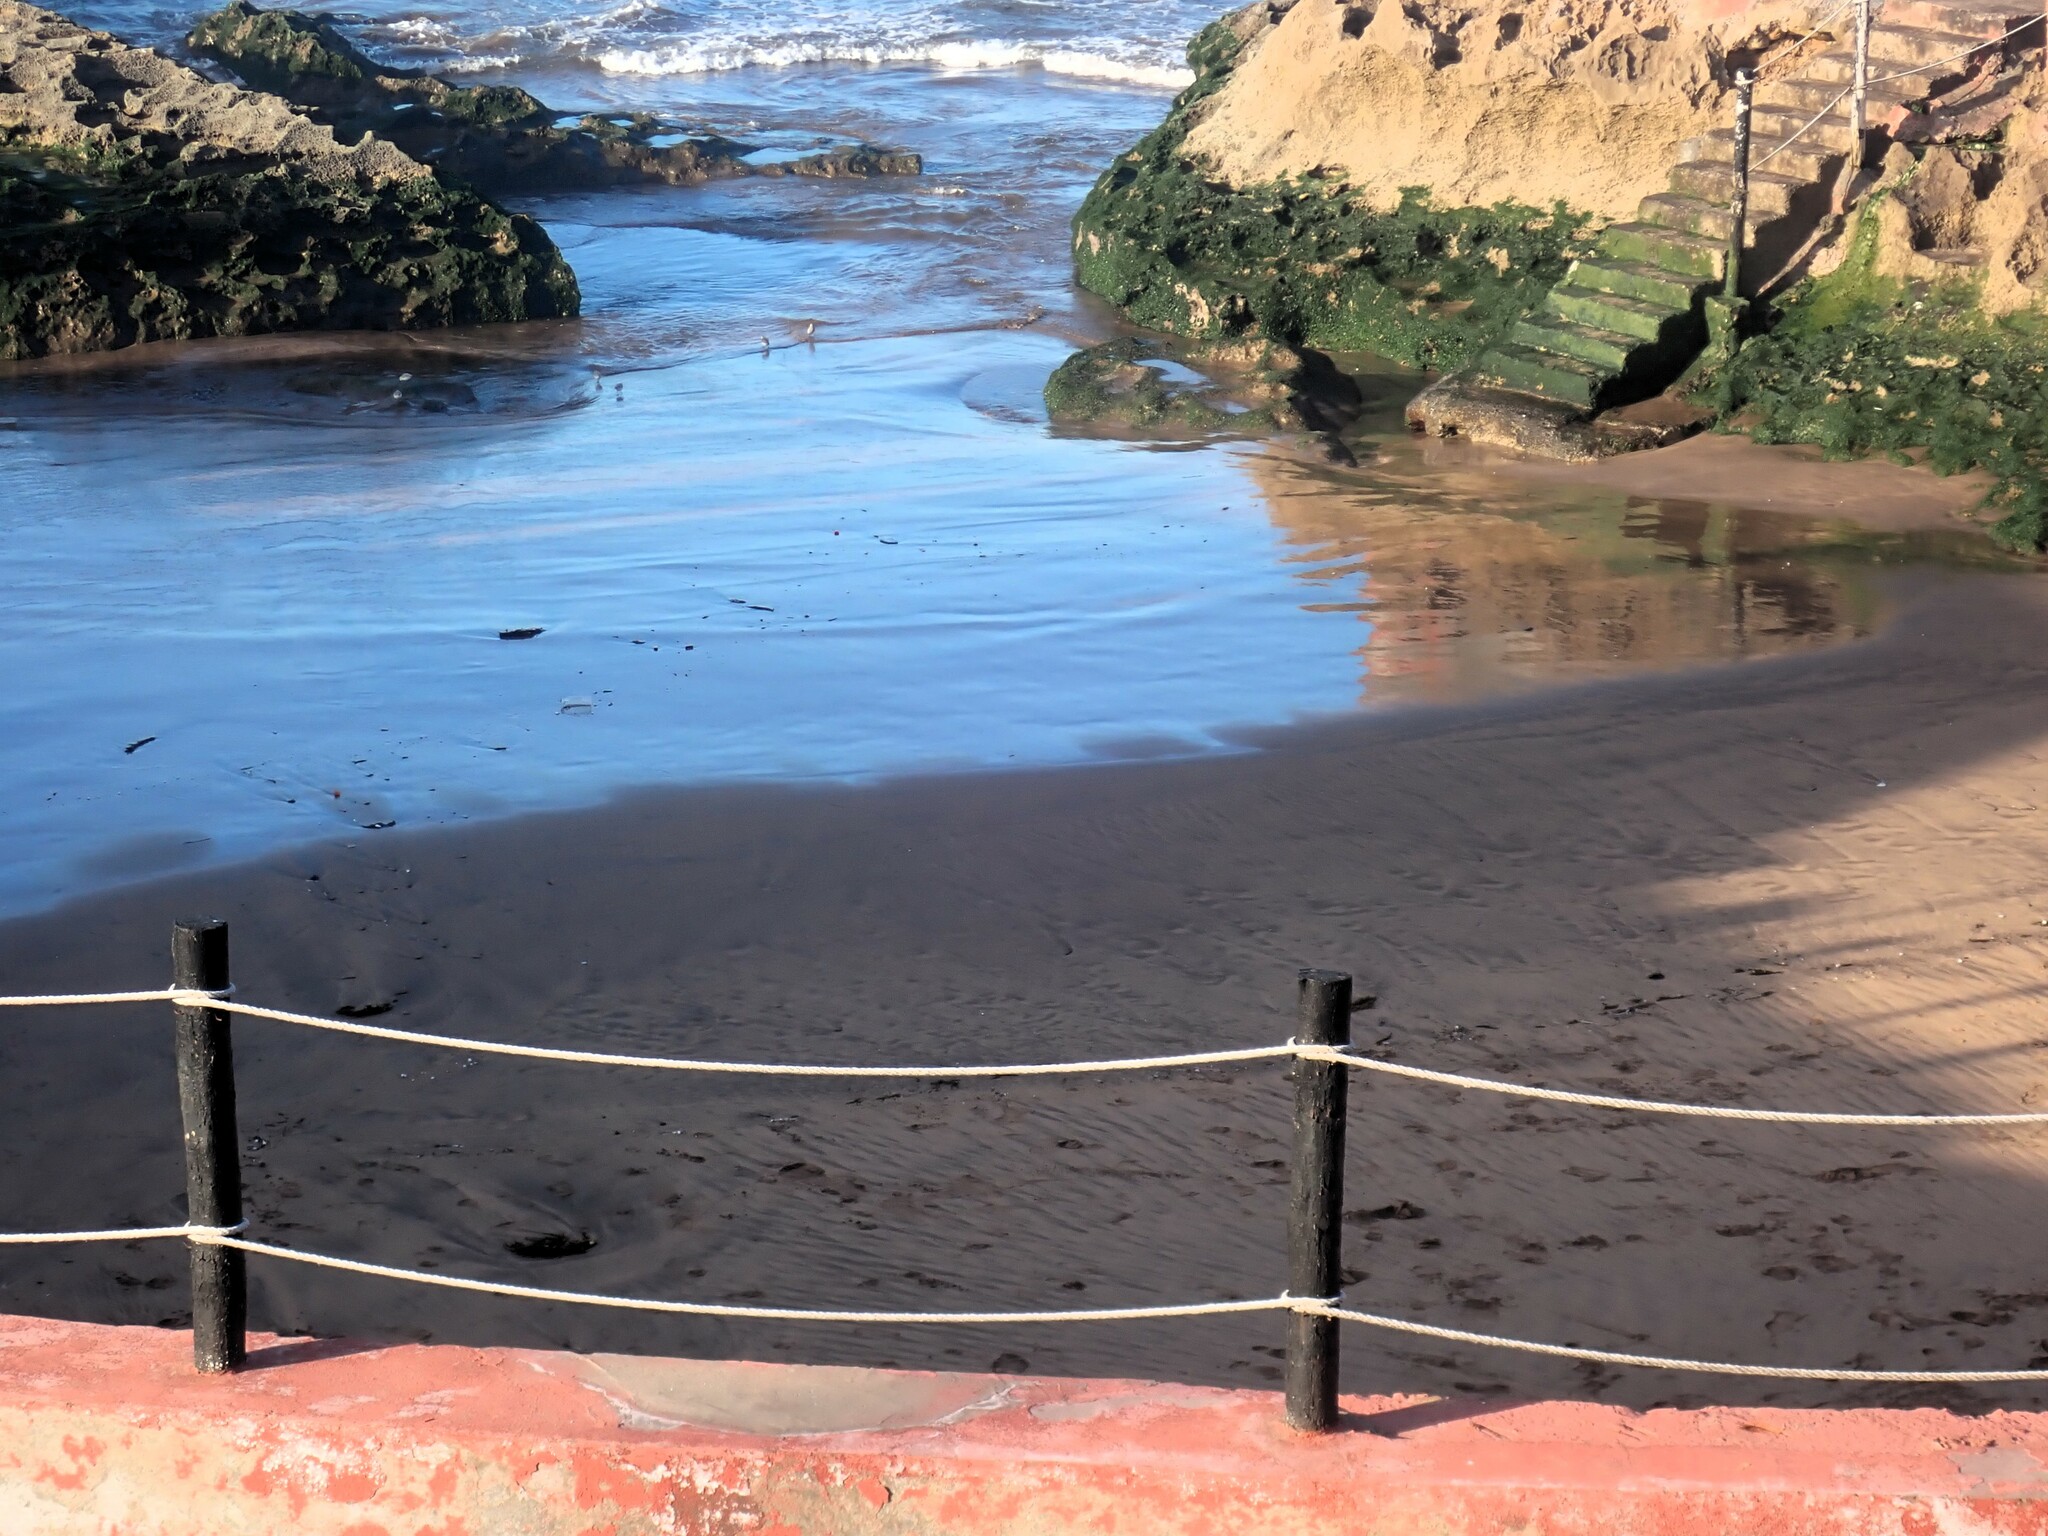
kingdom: Animalia
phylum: Chordata
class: Aves
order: Charadriiformes
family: Scolopacidae
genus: Calidris
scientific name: Calidris alba
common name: Sanderling
